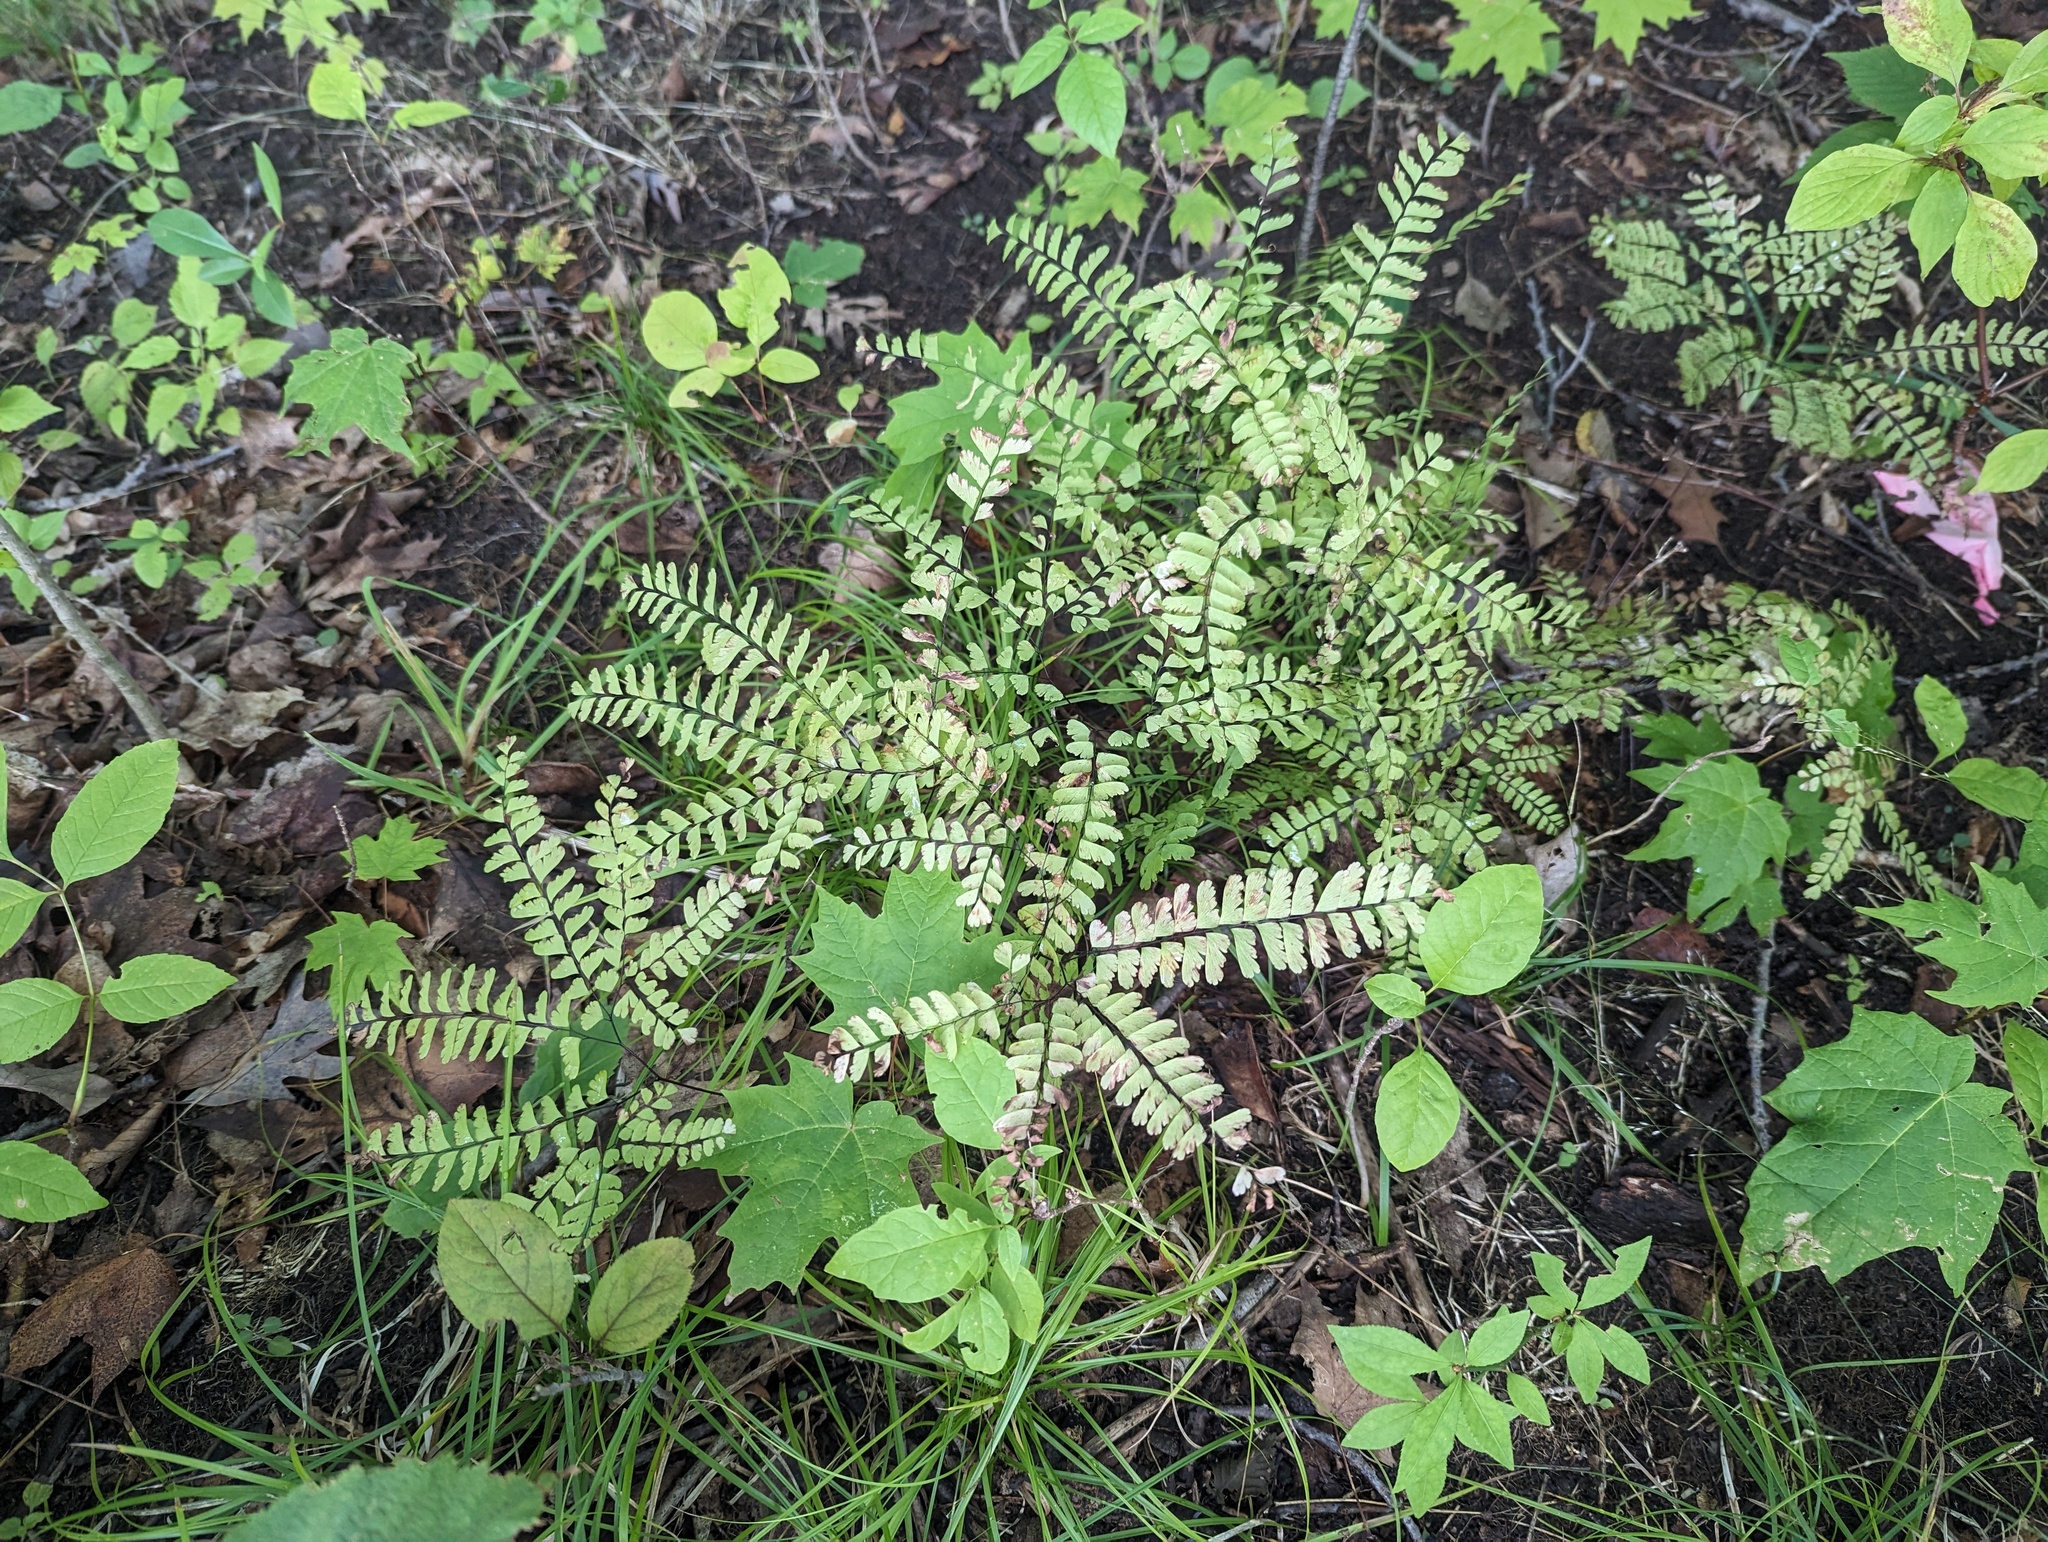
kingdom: Plantae
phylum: Tracheophyta
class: Polypodiopsida
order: Polypodiales
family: Pteridaceae
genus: Adiantum
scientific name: Adiantum pedatum
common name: Five-finger fern
